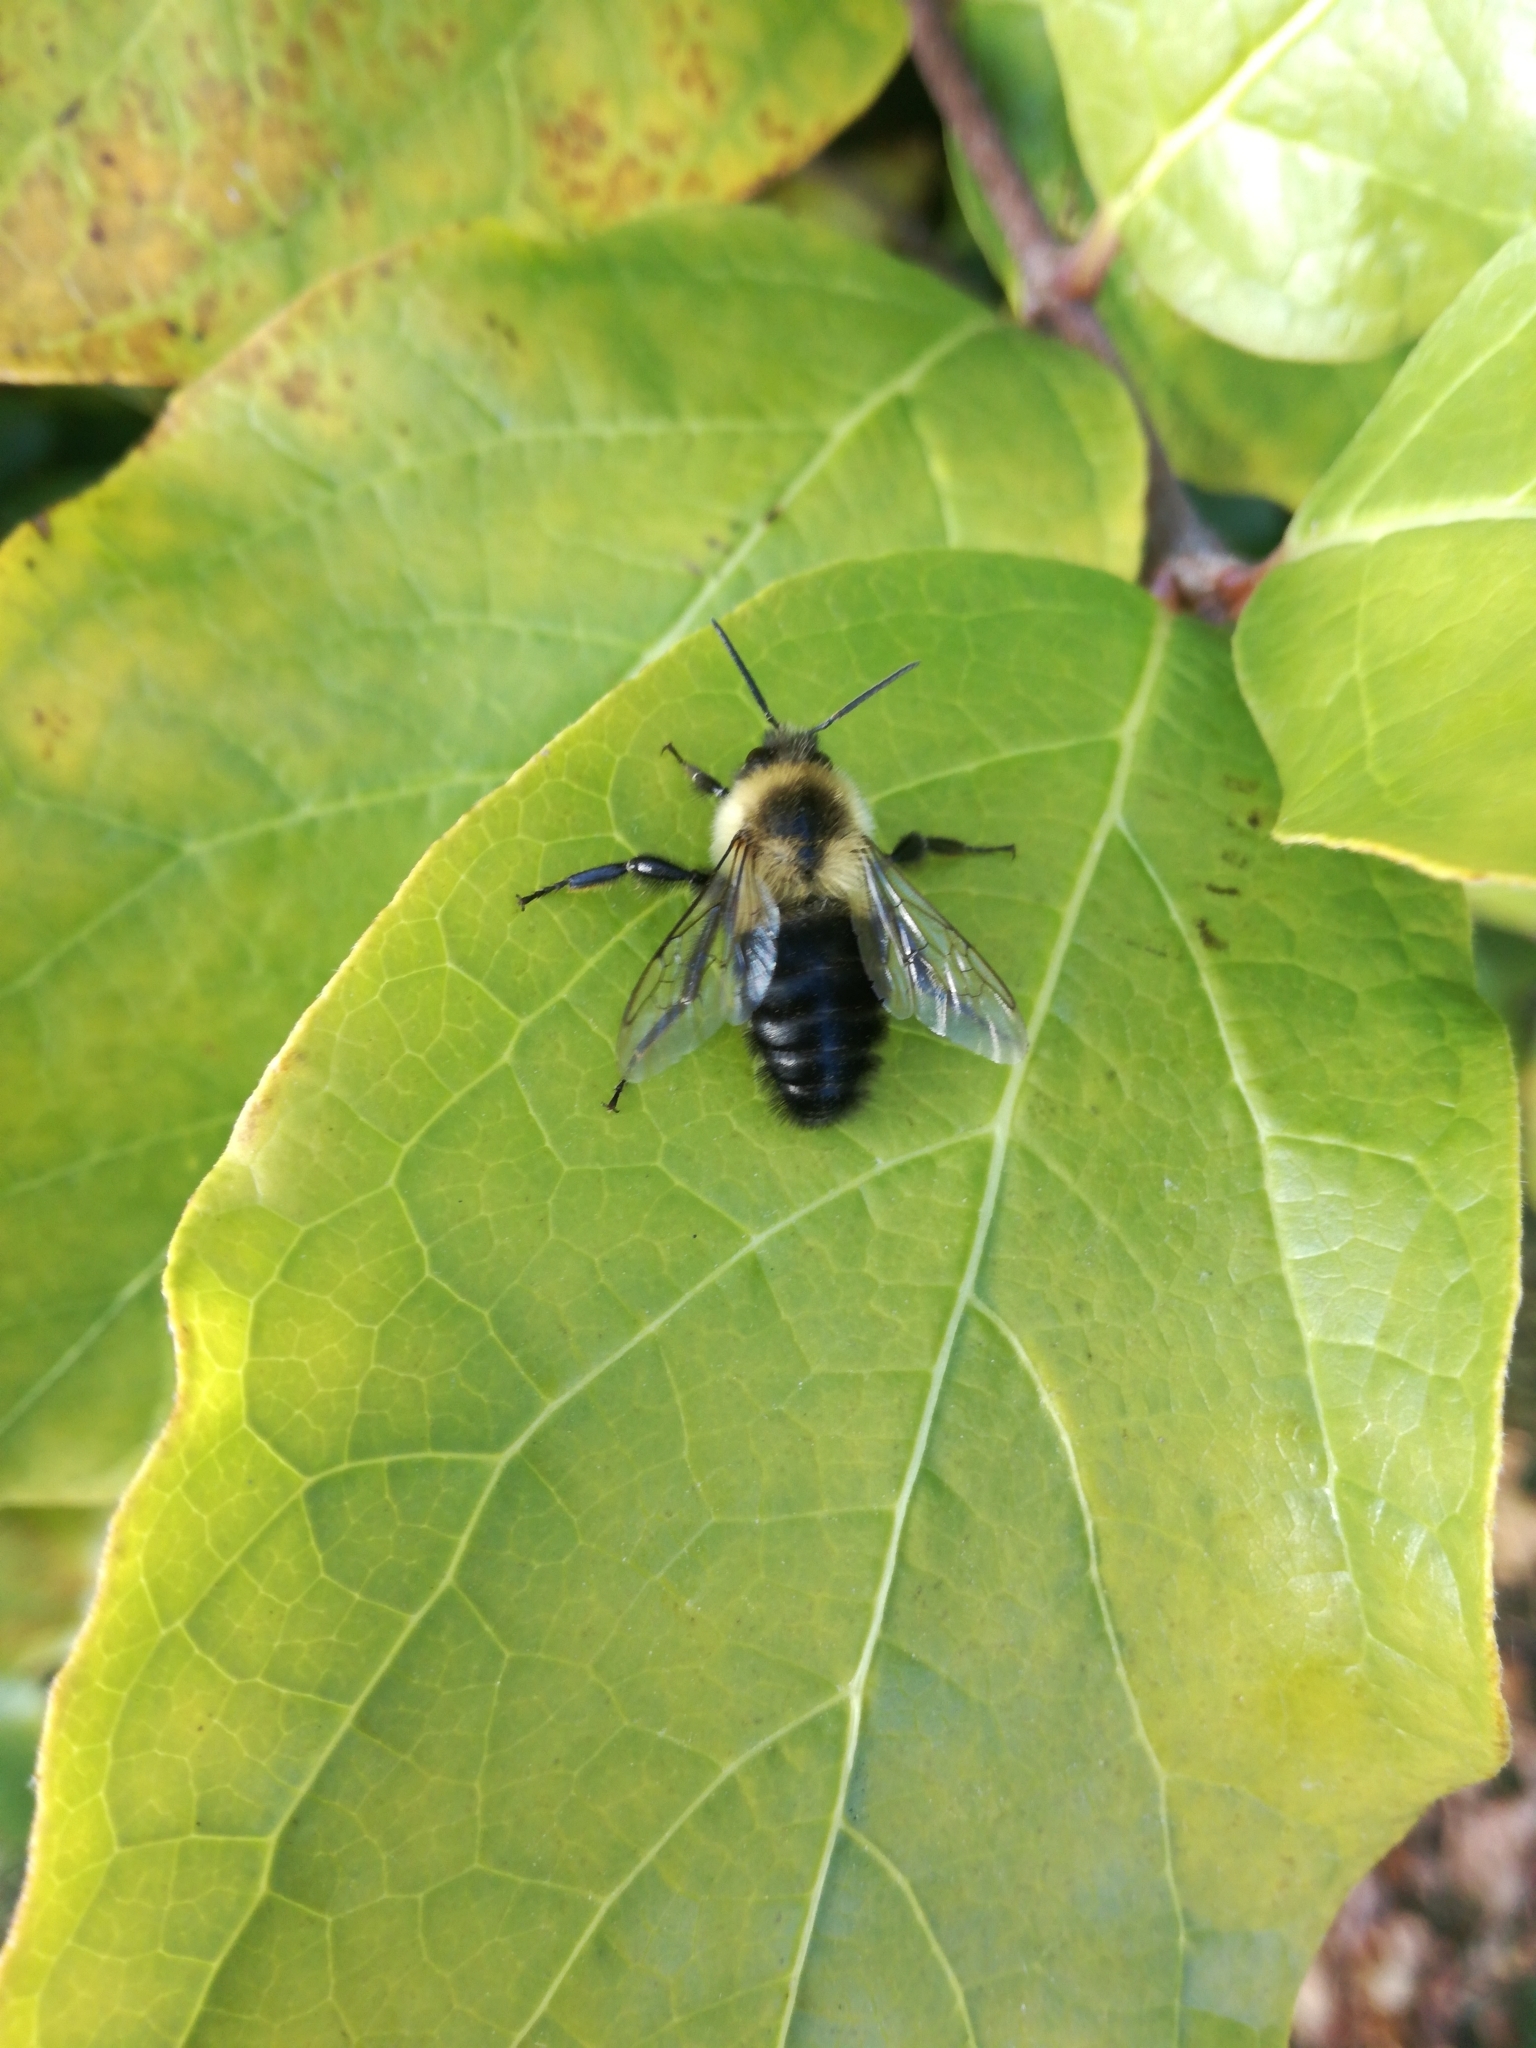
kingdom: Animalia
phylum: Arthropoda
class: Insecta
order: Hymenoptera
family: Apidae
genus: Bombus
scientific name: Bombus impatiens
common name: Common eastern bumble bee
